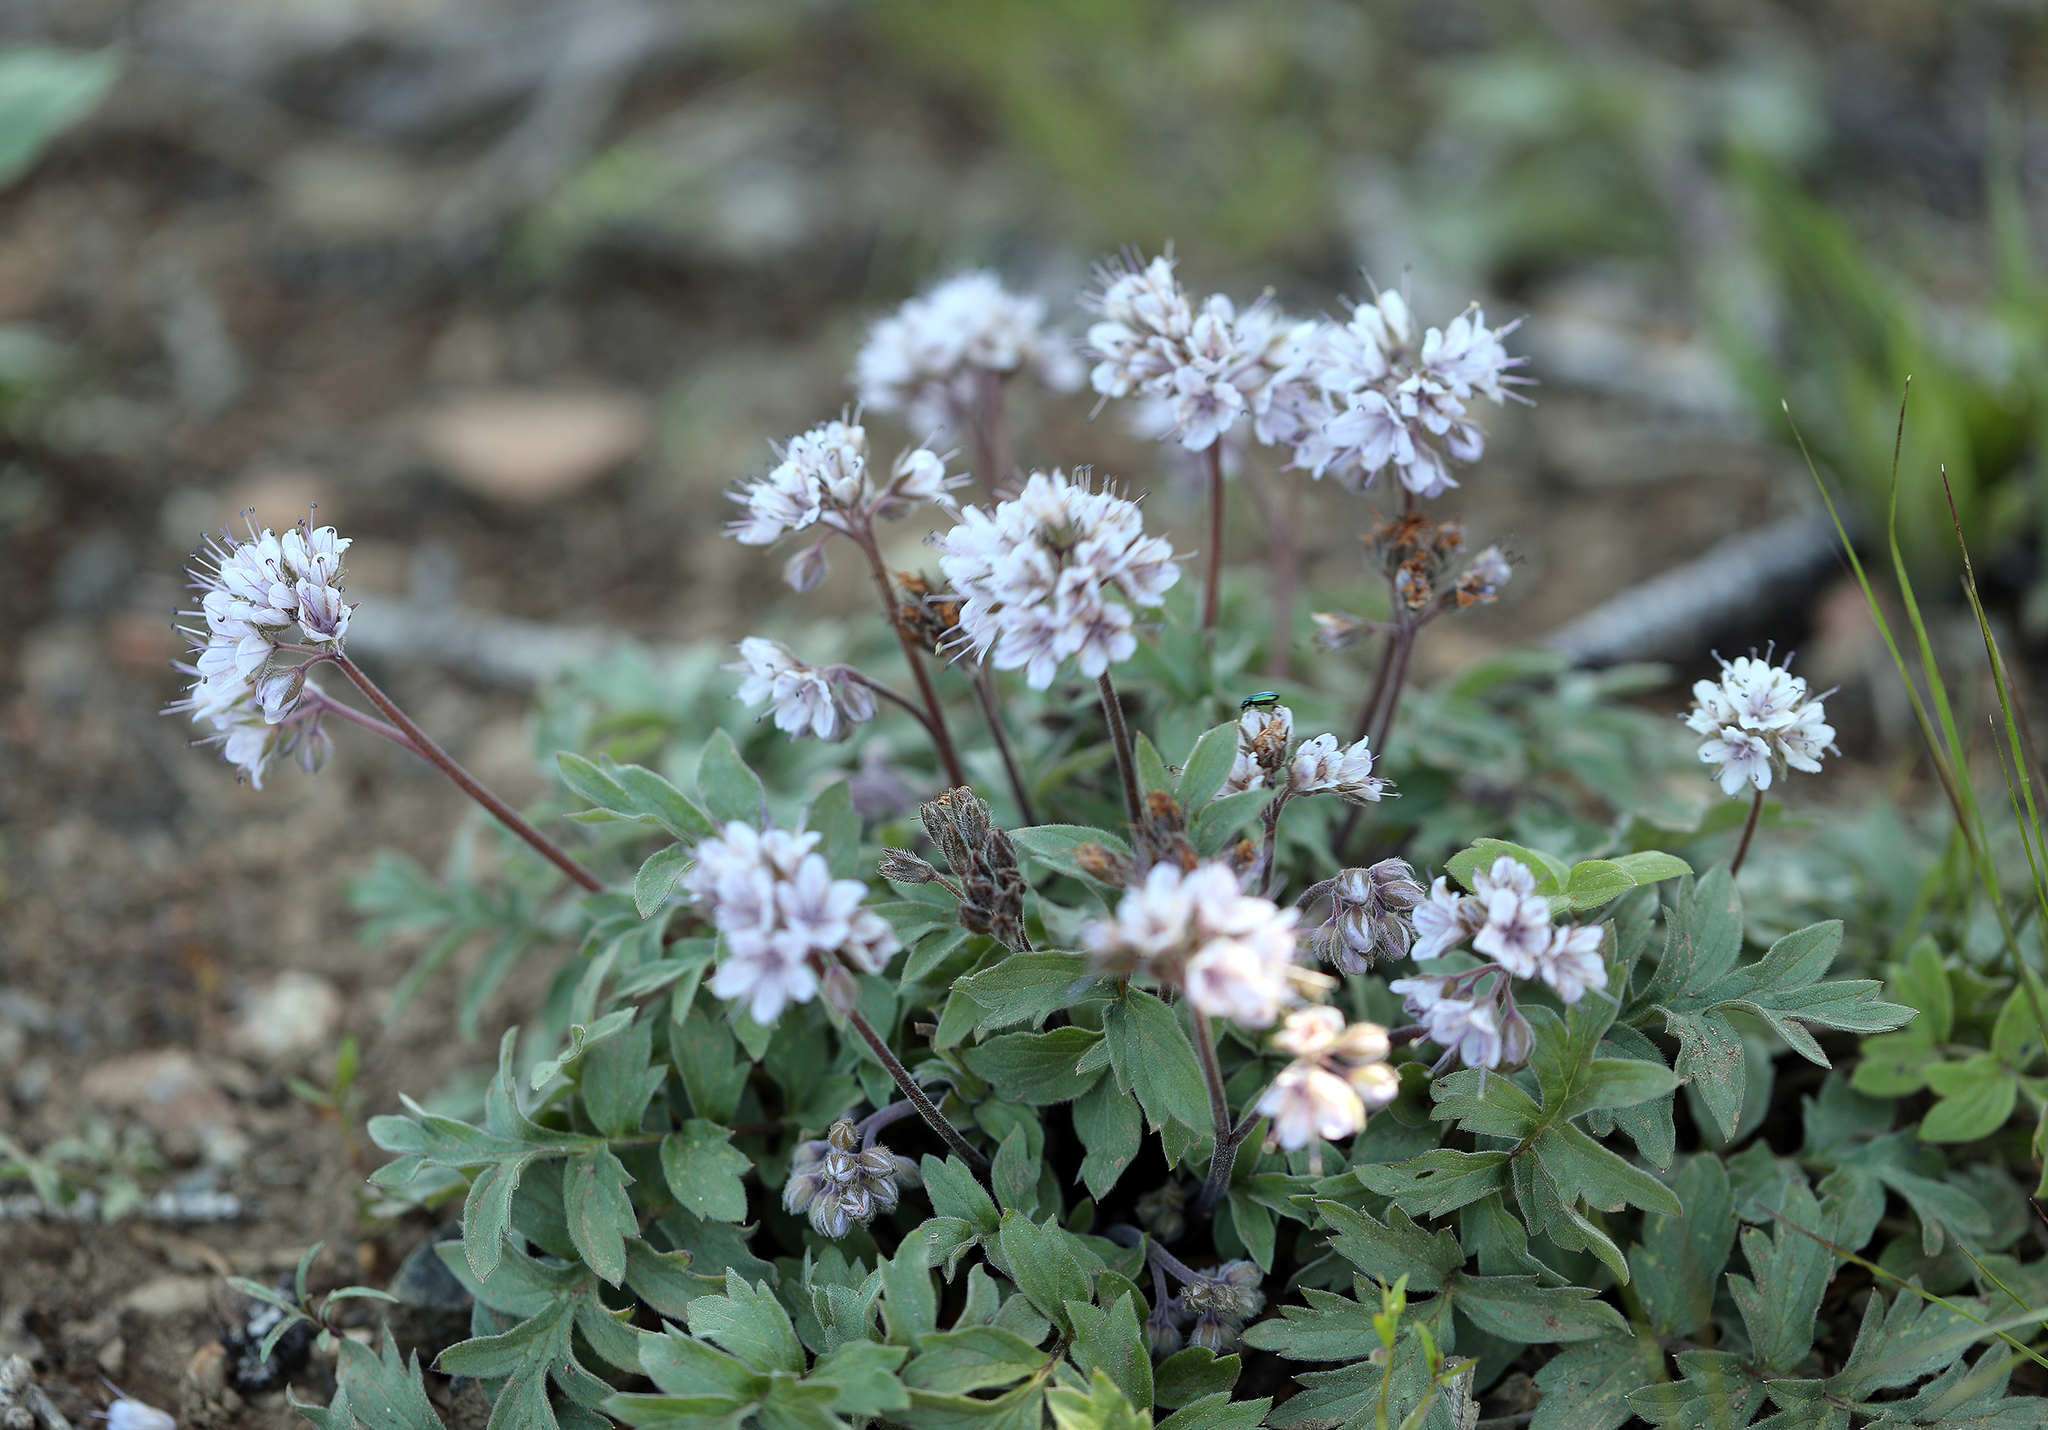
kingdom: Plantae
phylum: Tracheophyta
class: Magnoliopsida
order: Boraginales
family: Hydrophyllaceae
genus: Hydrophyllum
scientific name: Hydrophyllum occidentale
